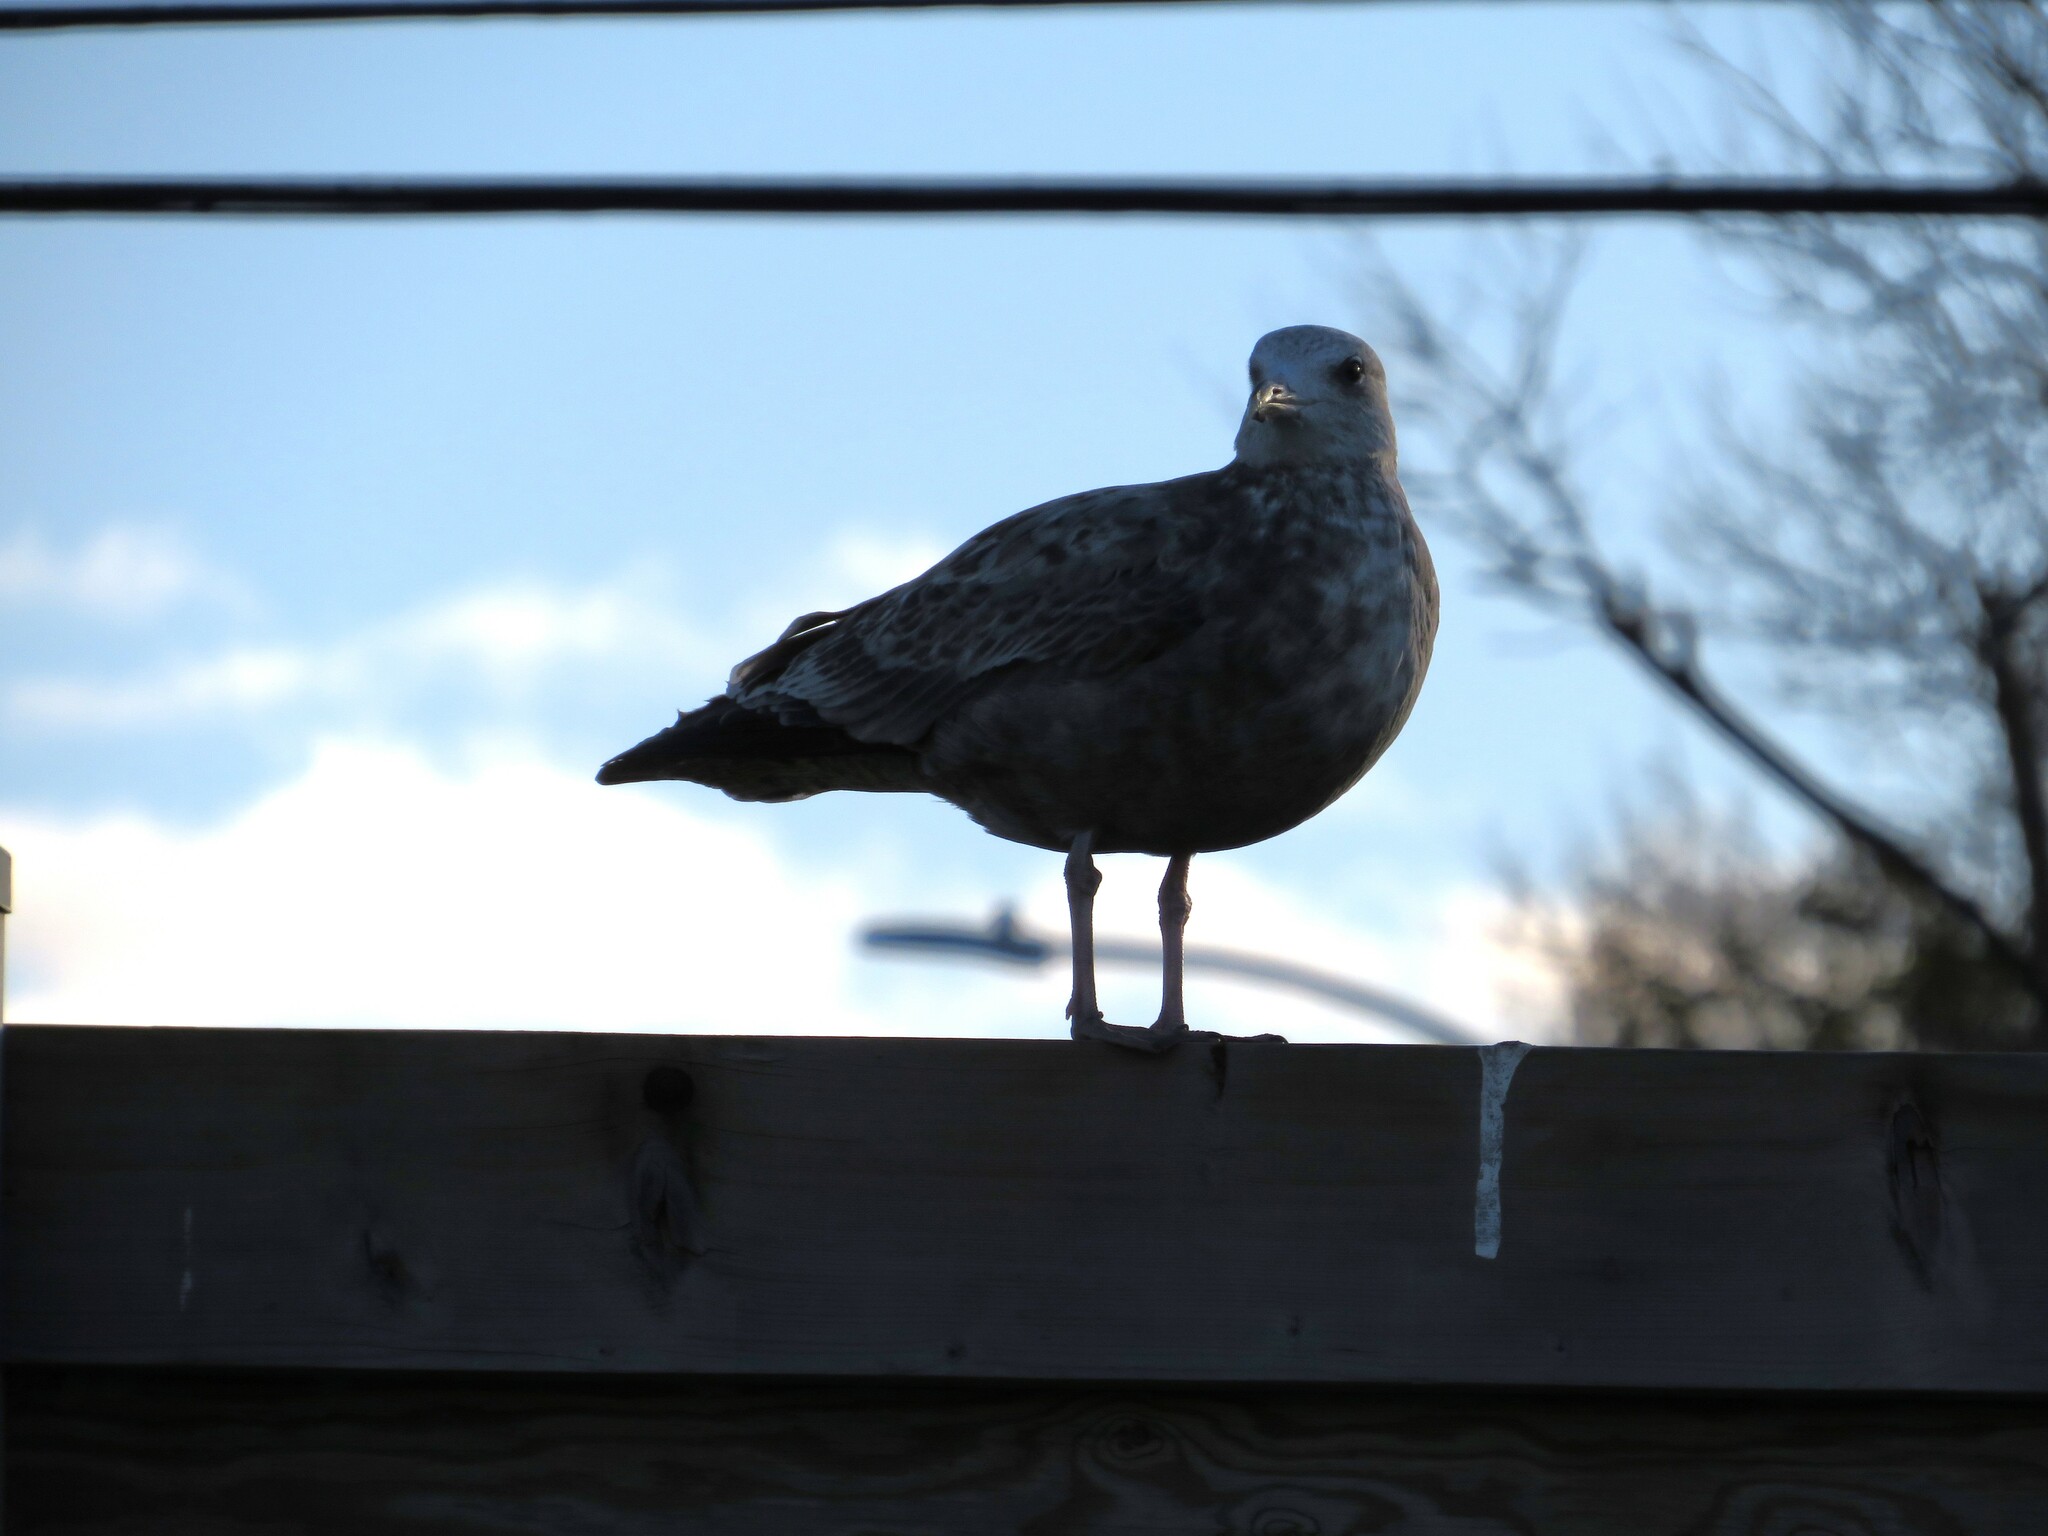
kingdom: Animalia
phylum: Chordata
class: Aves
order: Charadriiformes
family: Laridae
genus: Larus
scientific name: Larus delawarensis
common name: Ring-billed gull
